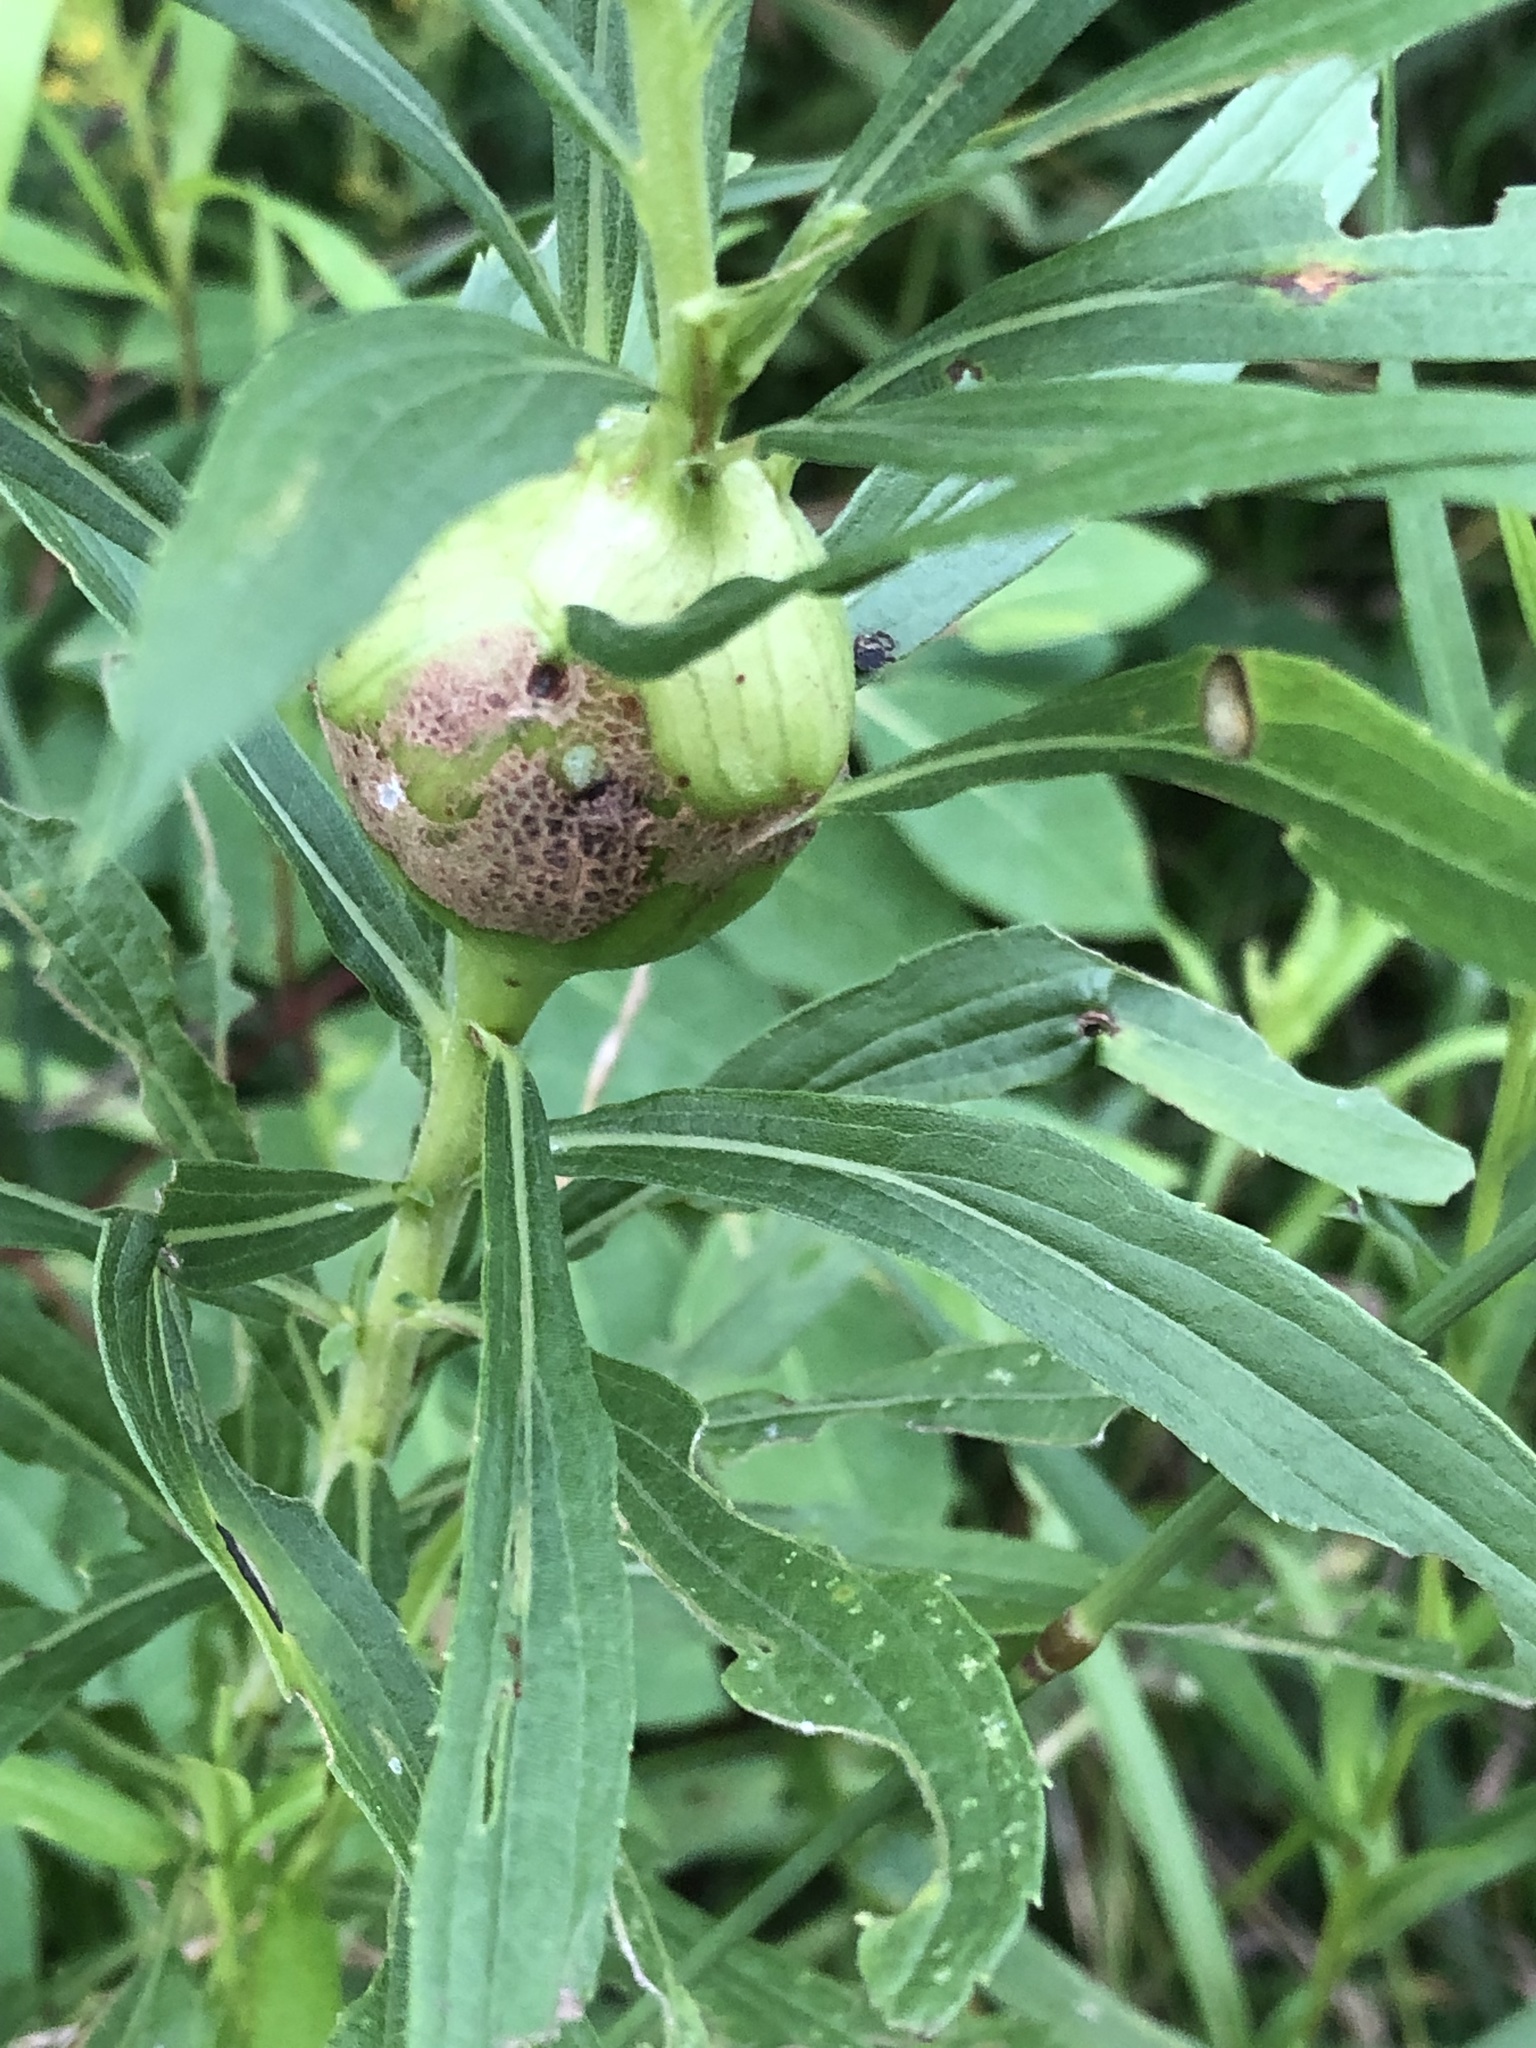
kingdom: Animalia
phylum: Arthropoda
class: Insecta
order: Diptera
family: Tephritidae
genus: Eurosta
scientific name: Eurosta solidaginis
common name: Goldenrod gall fly
